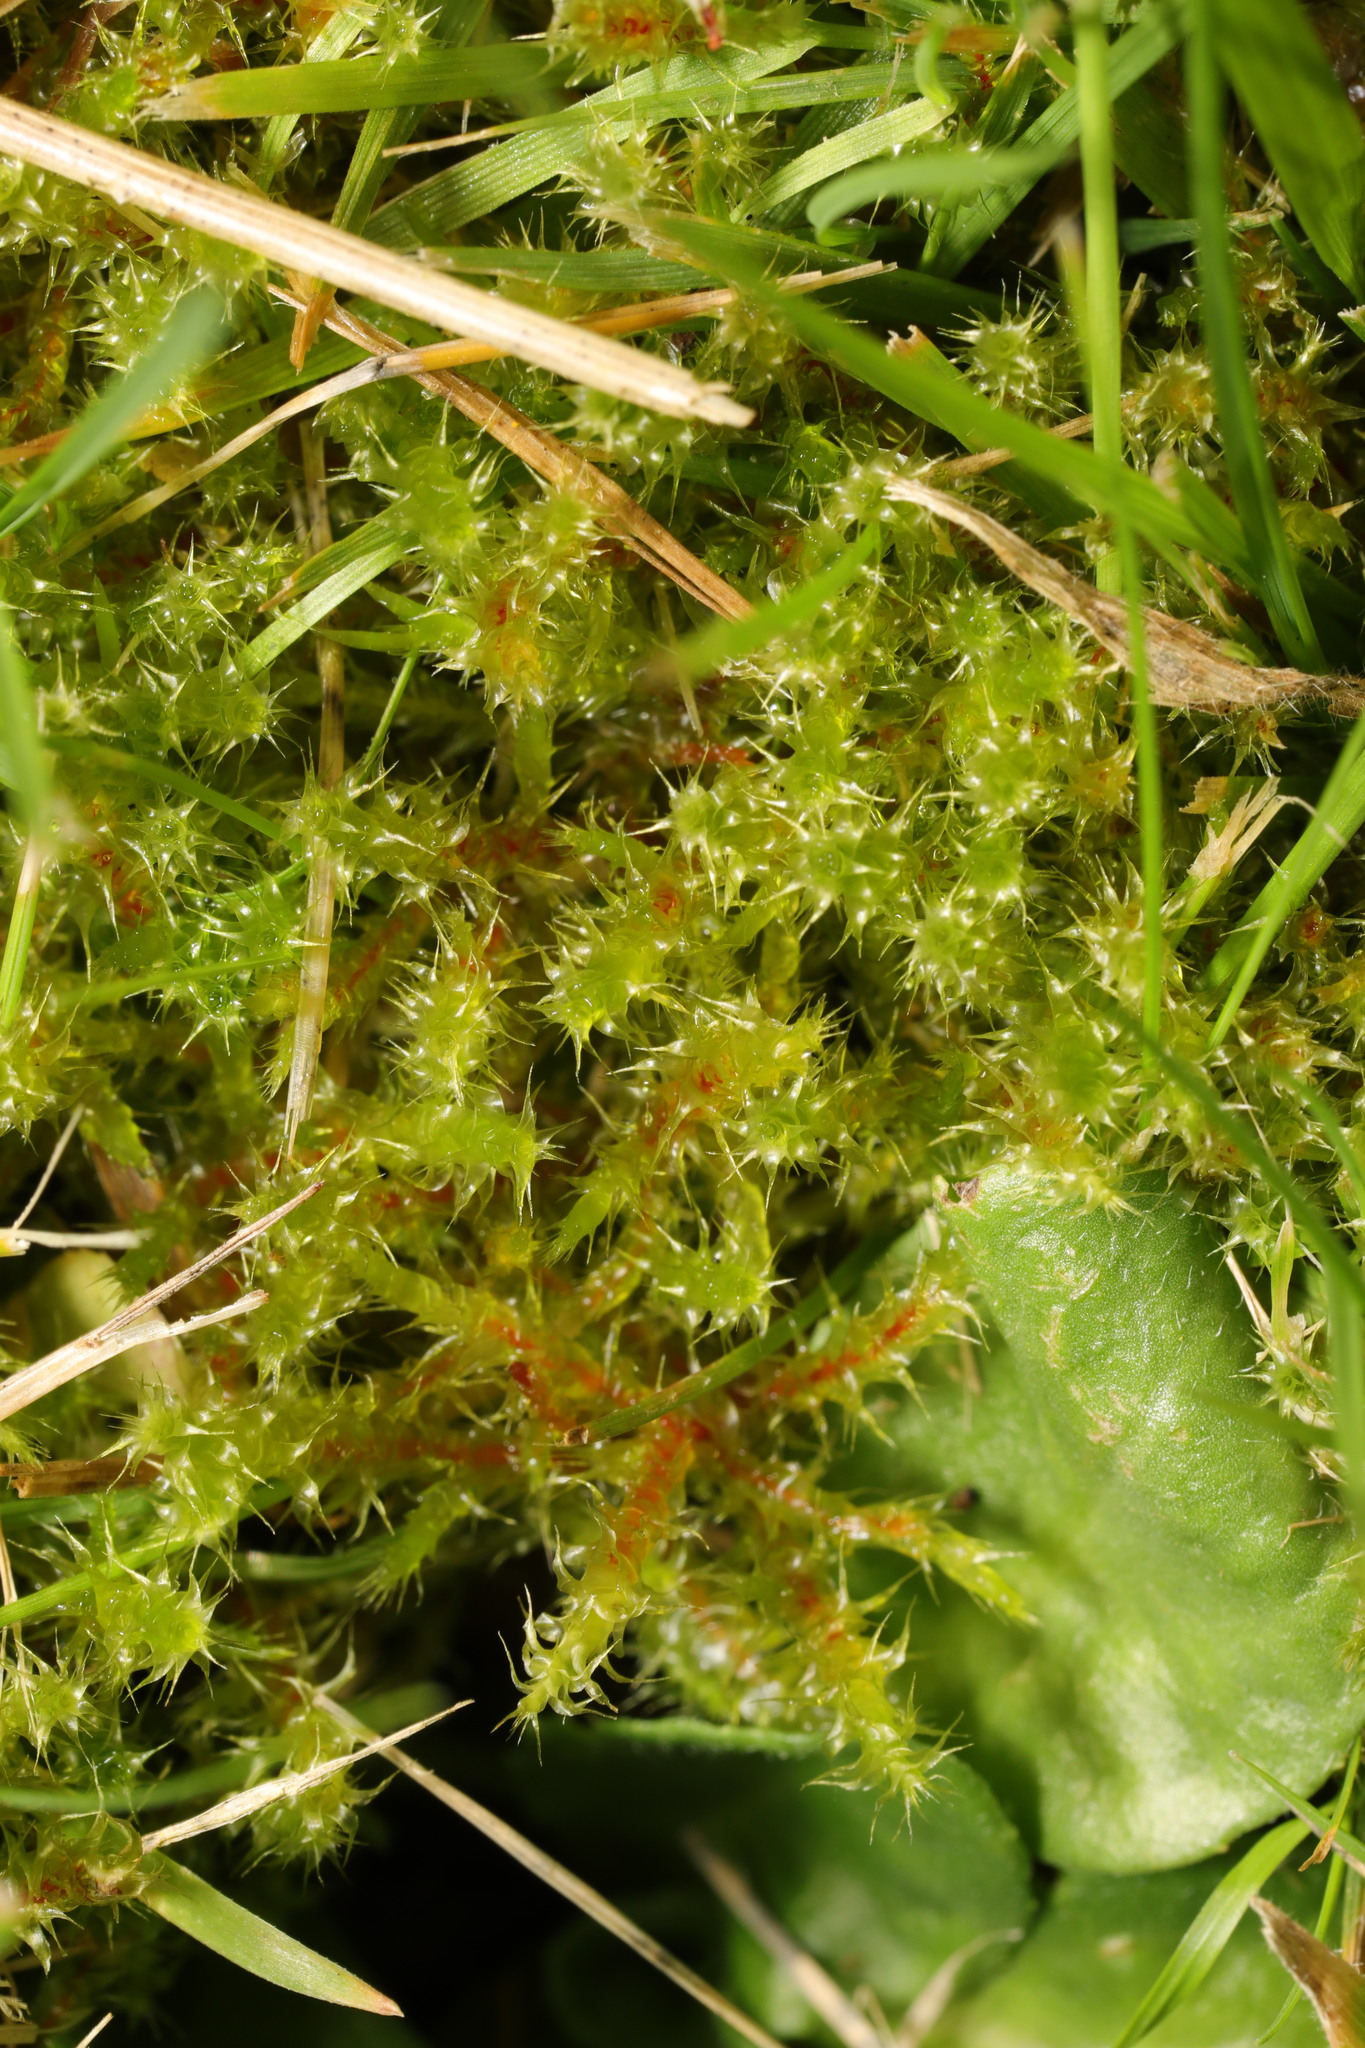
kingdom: Plantae
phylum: Bryophyta
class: Bryopsida
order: Hypnales
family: Hylocomiaceae
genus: Rhytidiadelphus
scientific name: Rhytidiadelphus squarrosus
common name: Springy turf-moss
